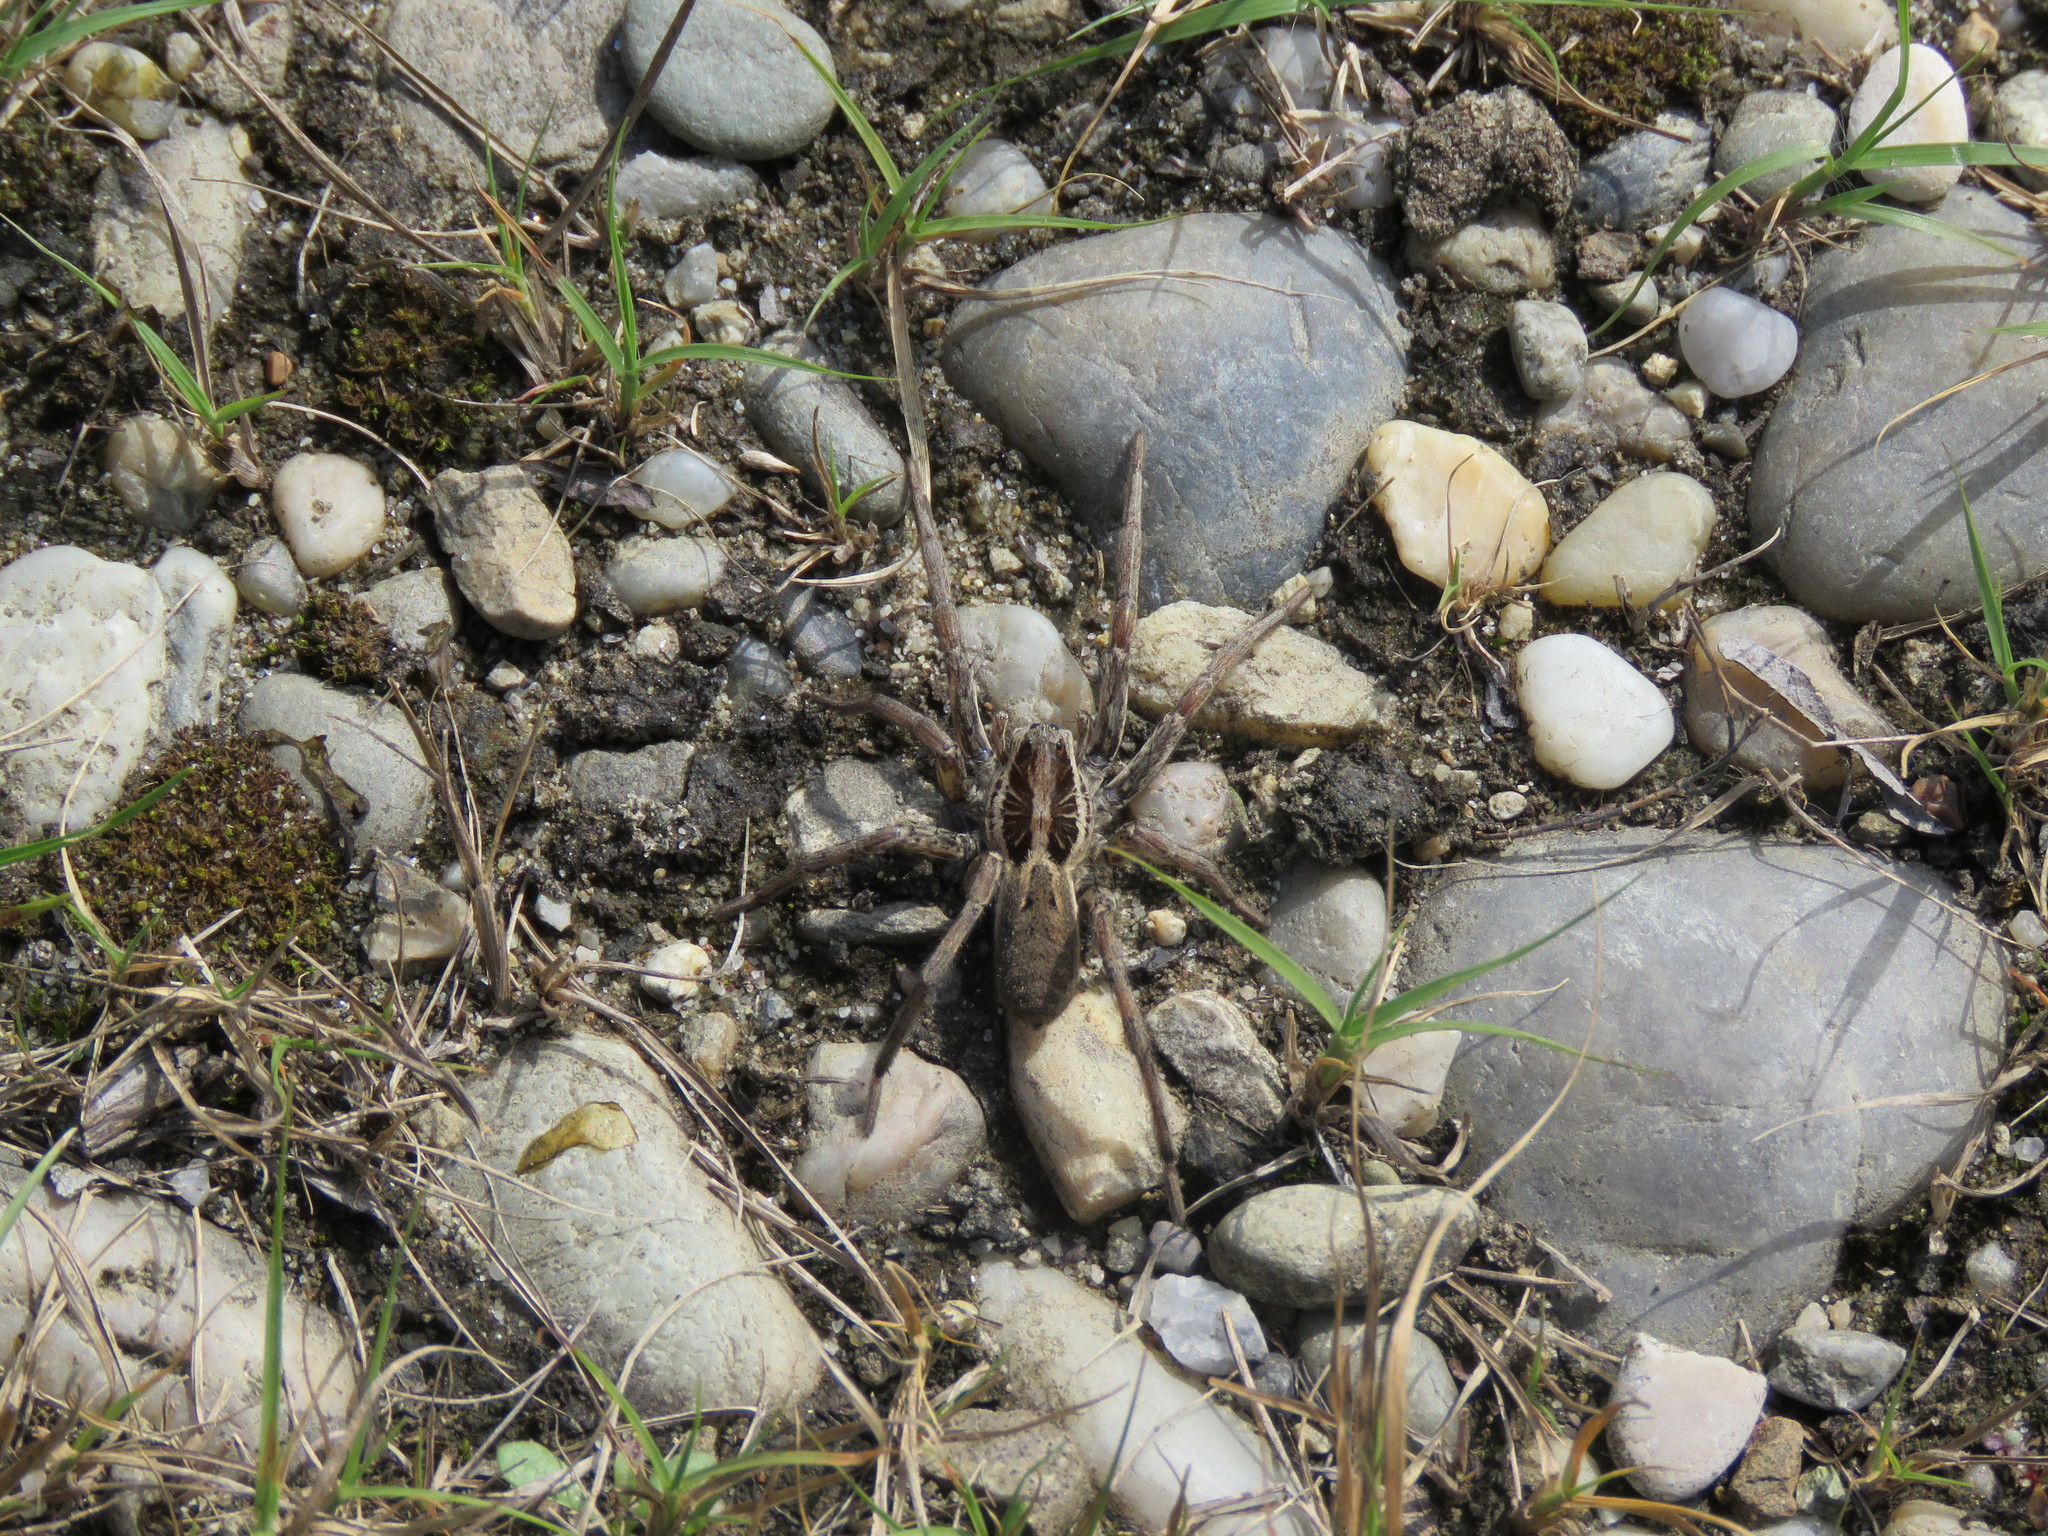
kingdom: Animalia
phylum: Arthropoda
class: Arachnida
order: Araneae
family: Lycosidae
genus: Hogna
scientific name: Hogna radiata
